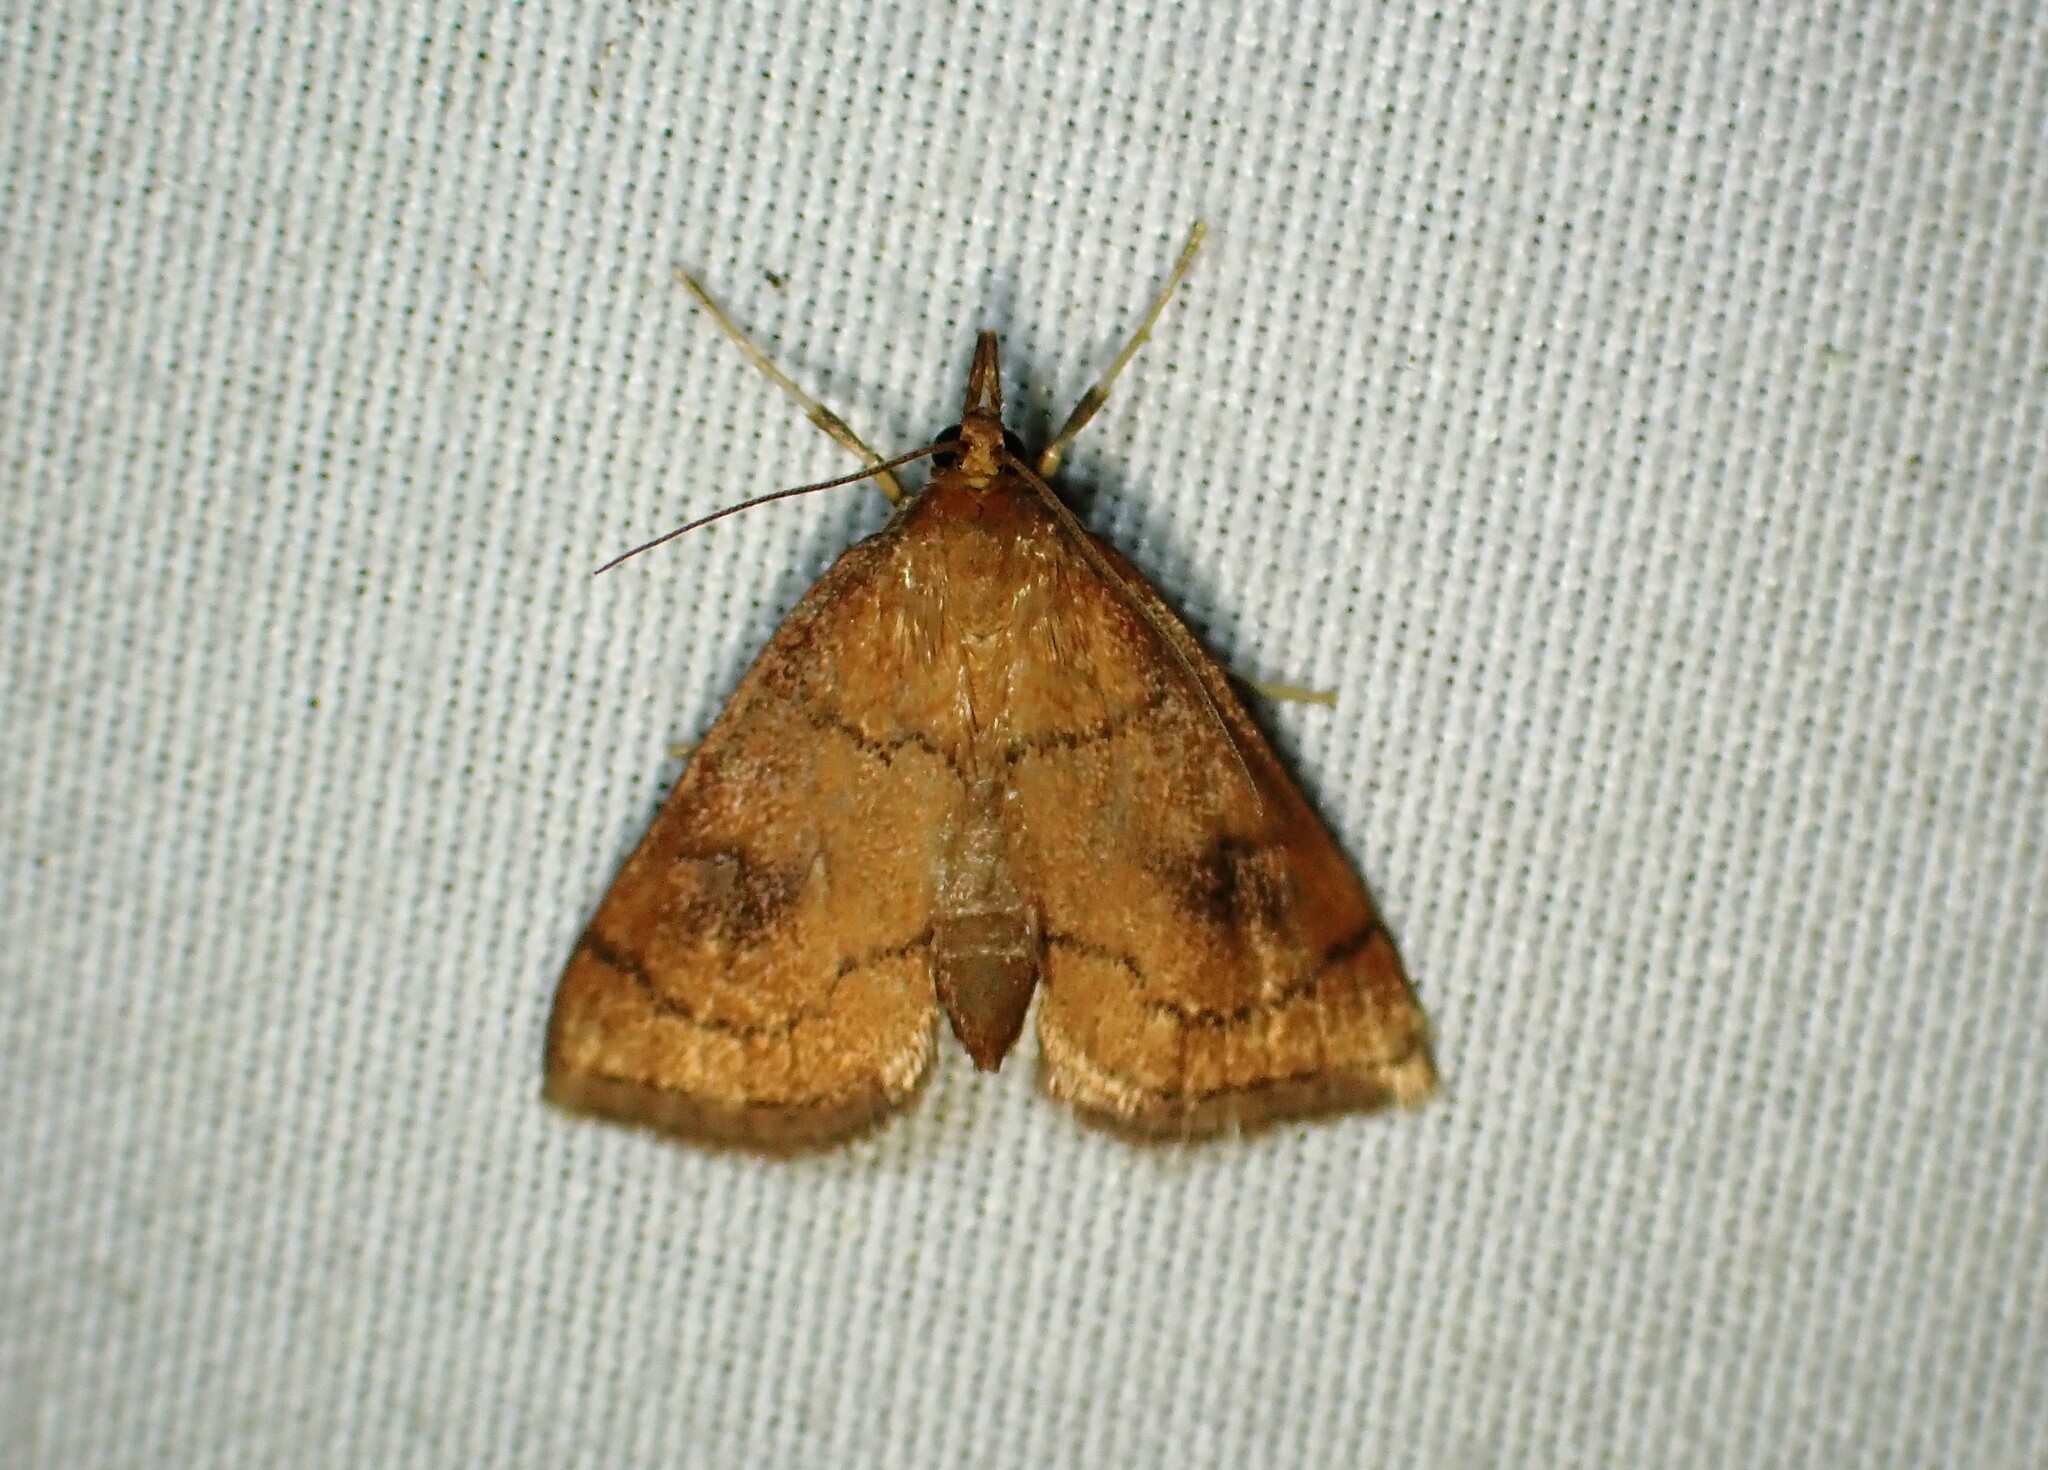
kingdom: Animalia
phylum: Arthropoda
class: Insecta
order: Lepidoptera
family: Crambidae
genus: Fumibotys
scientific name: Fumibotys fumalis
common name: Mint root borer moth
